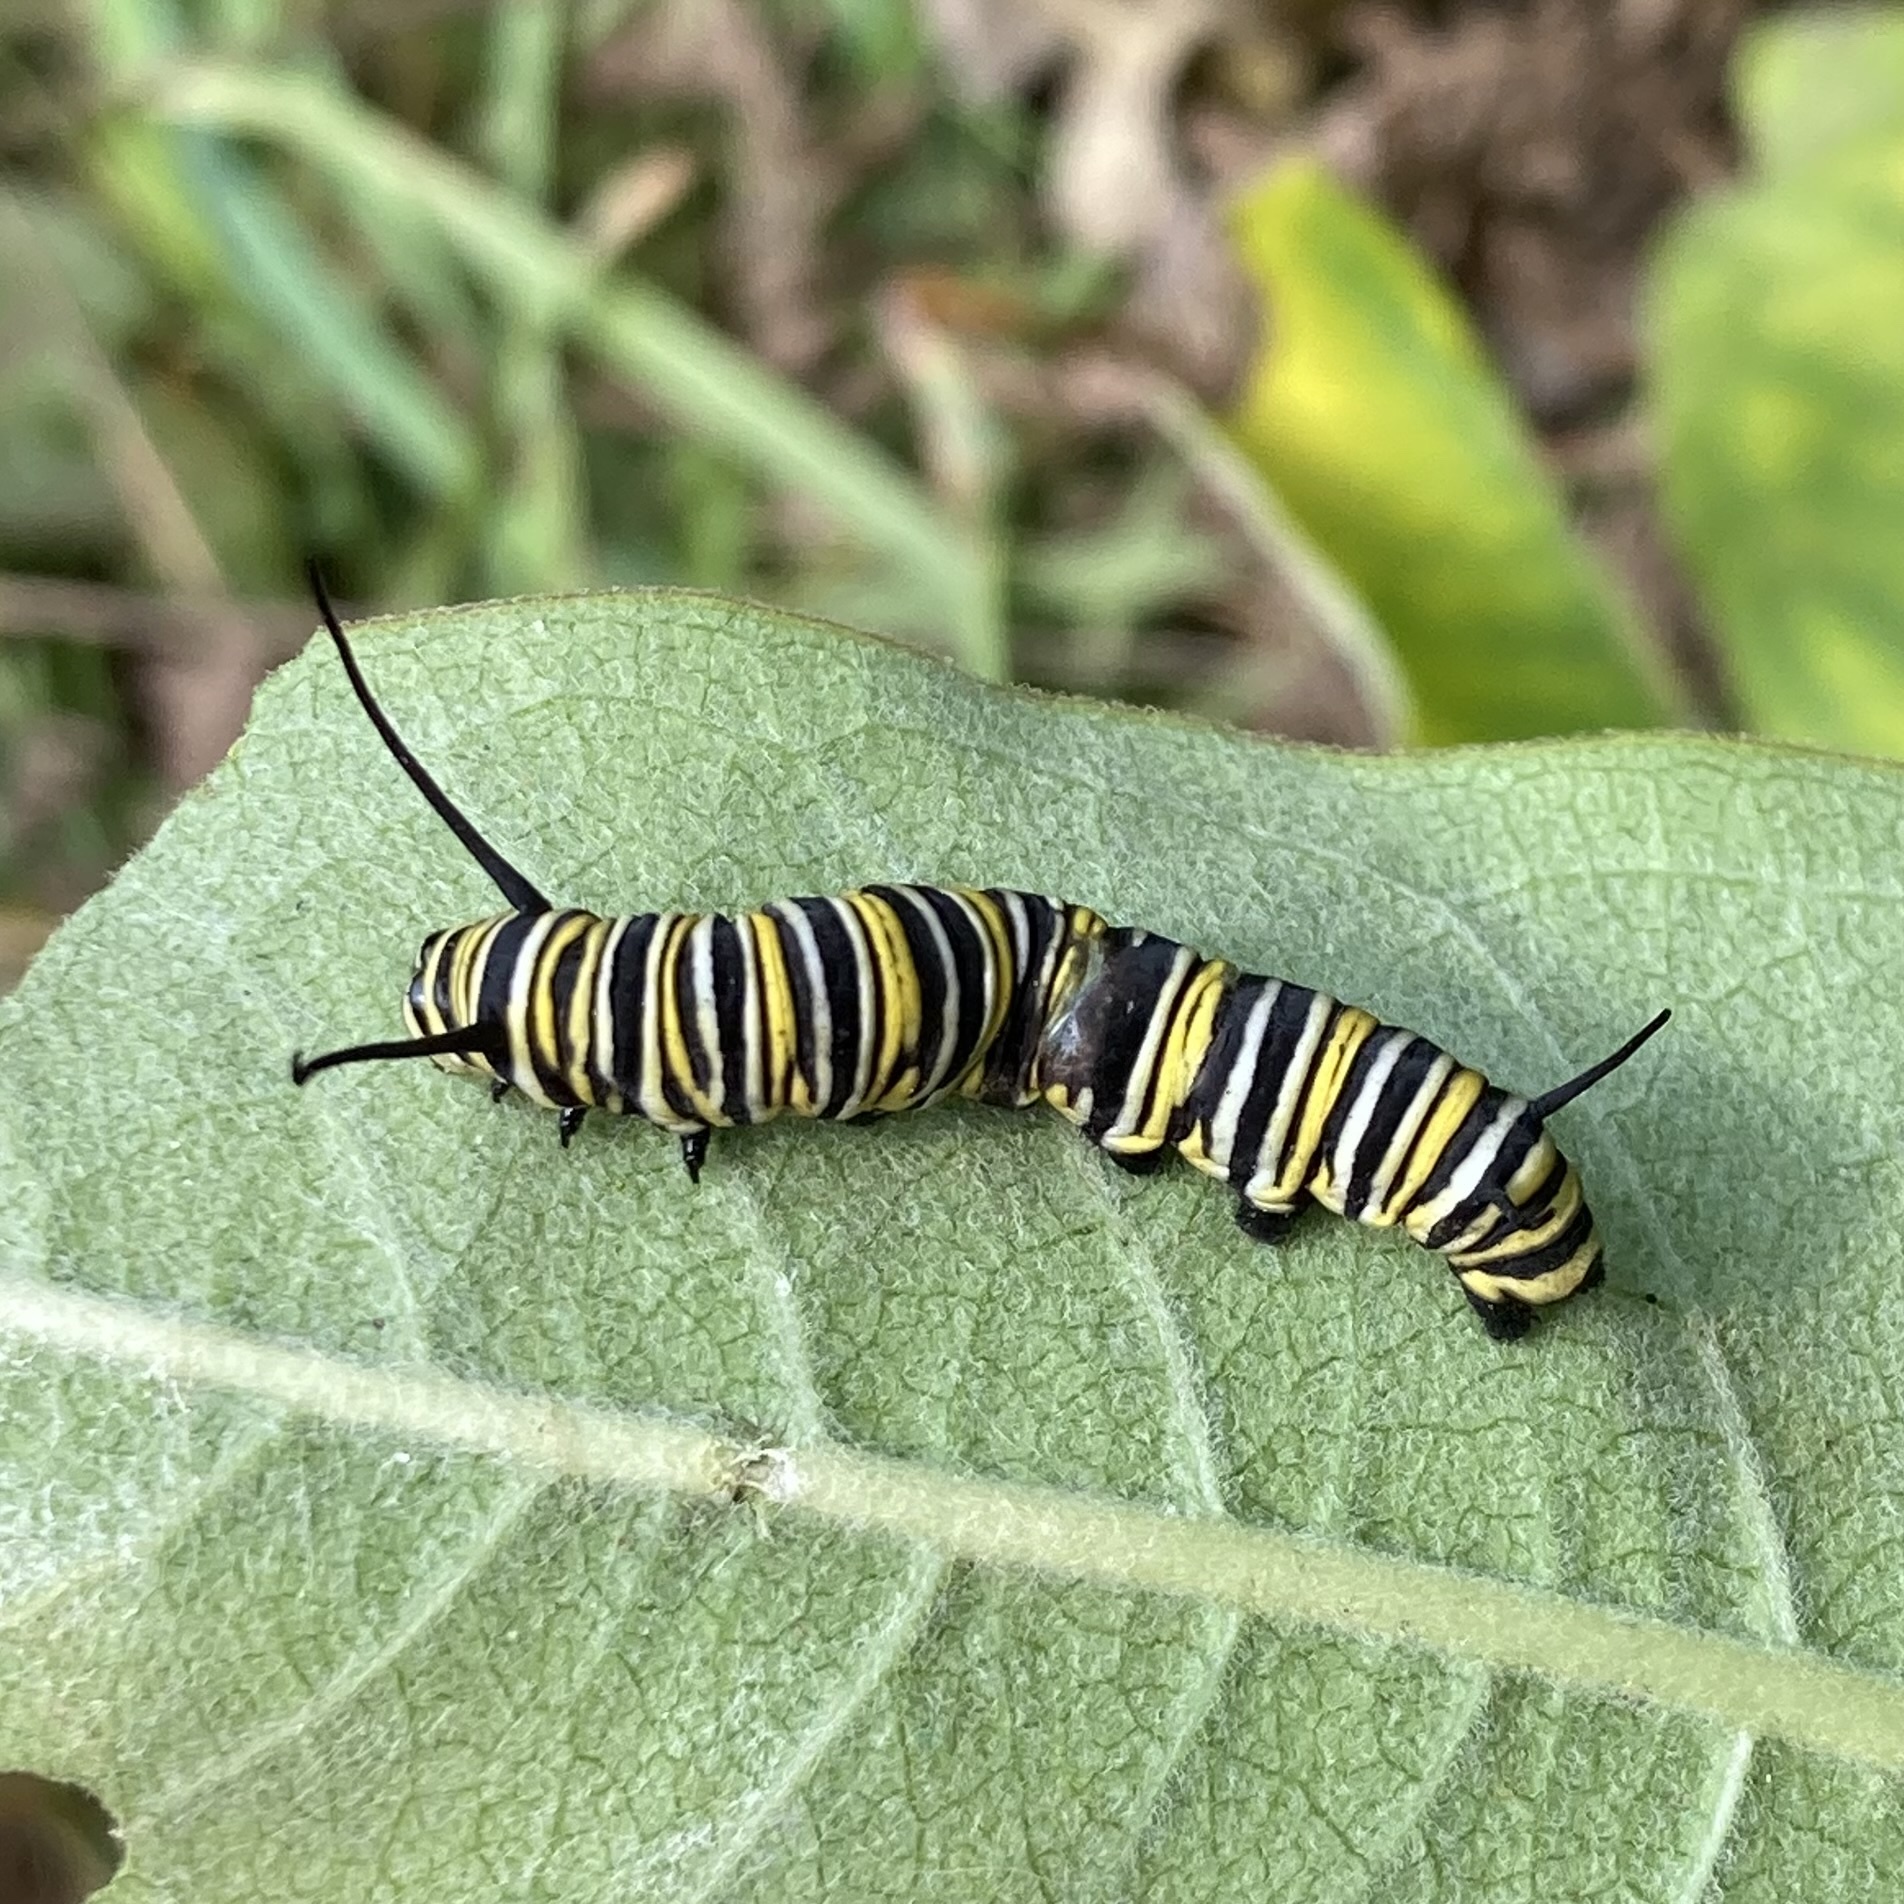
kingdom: Animalia
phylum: Arthropoda
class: Insecta
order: Lepidoptera
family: Nymphalidae
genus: Danaus
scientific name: Danaus plexippus
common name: Monarch
